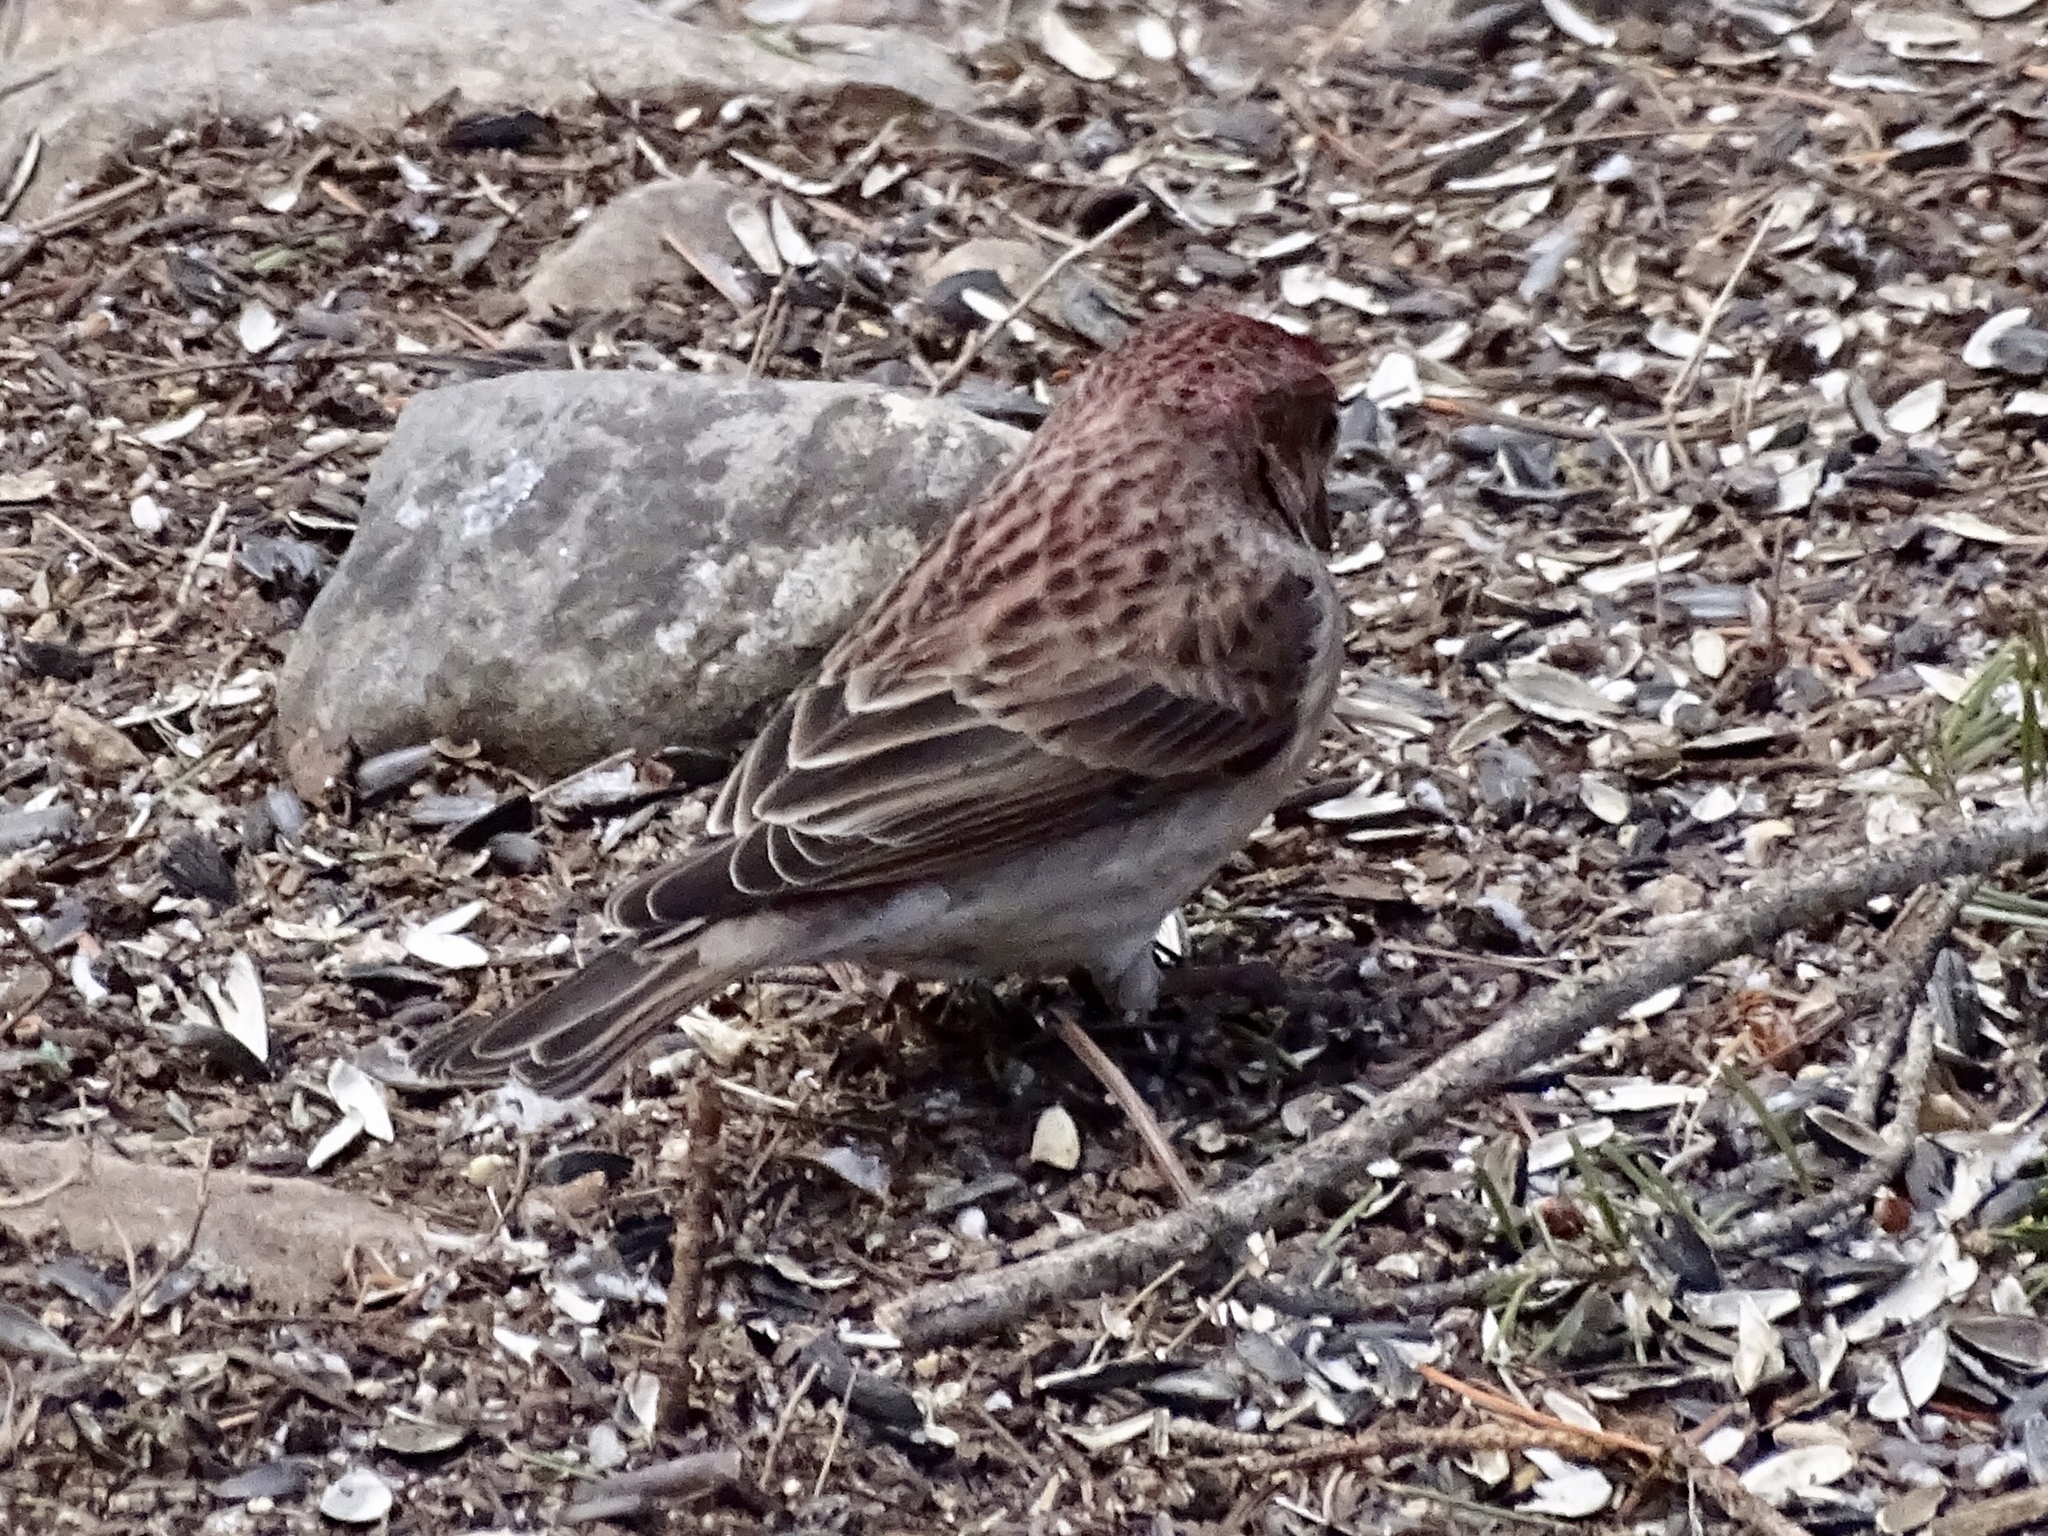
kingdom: Animalia
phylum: Chordata
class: Aves
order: Passeriformes
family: Fringillidae
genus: Haemorhous
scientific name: Haemorhous cassinii
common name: Cassin's finch
